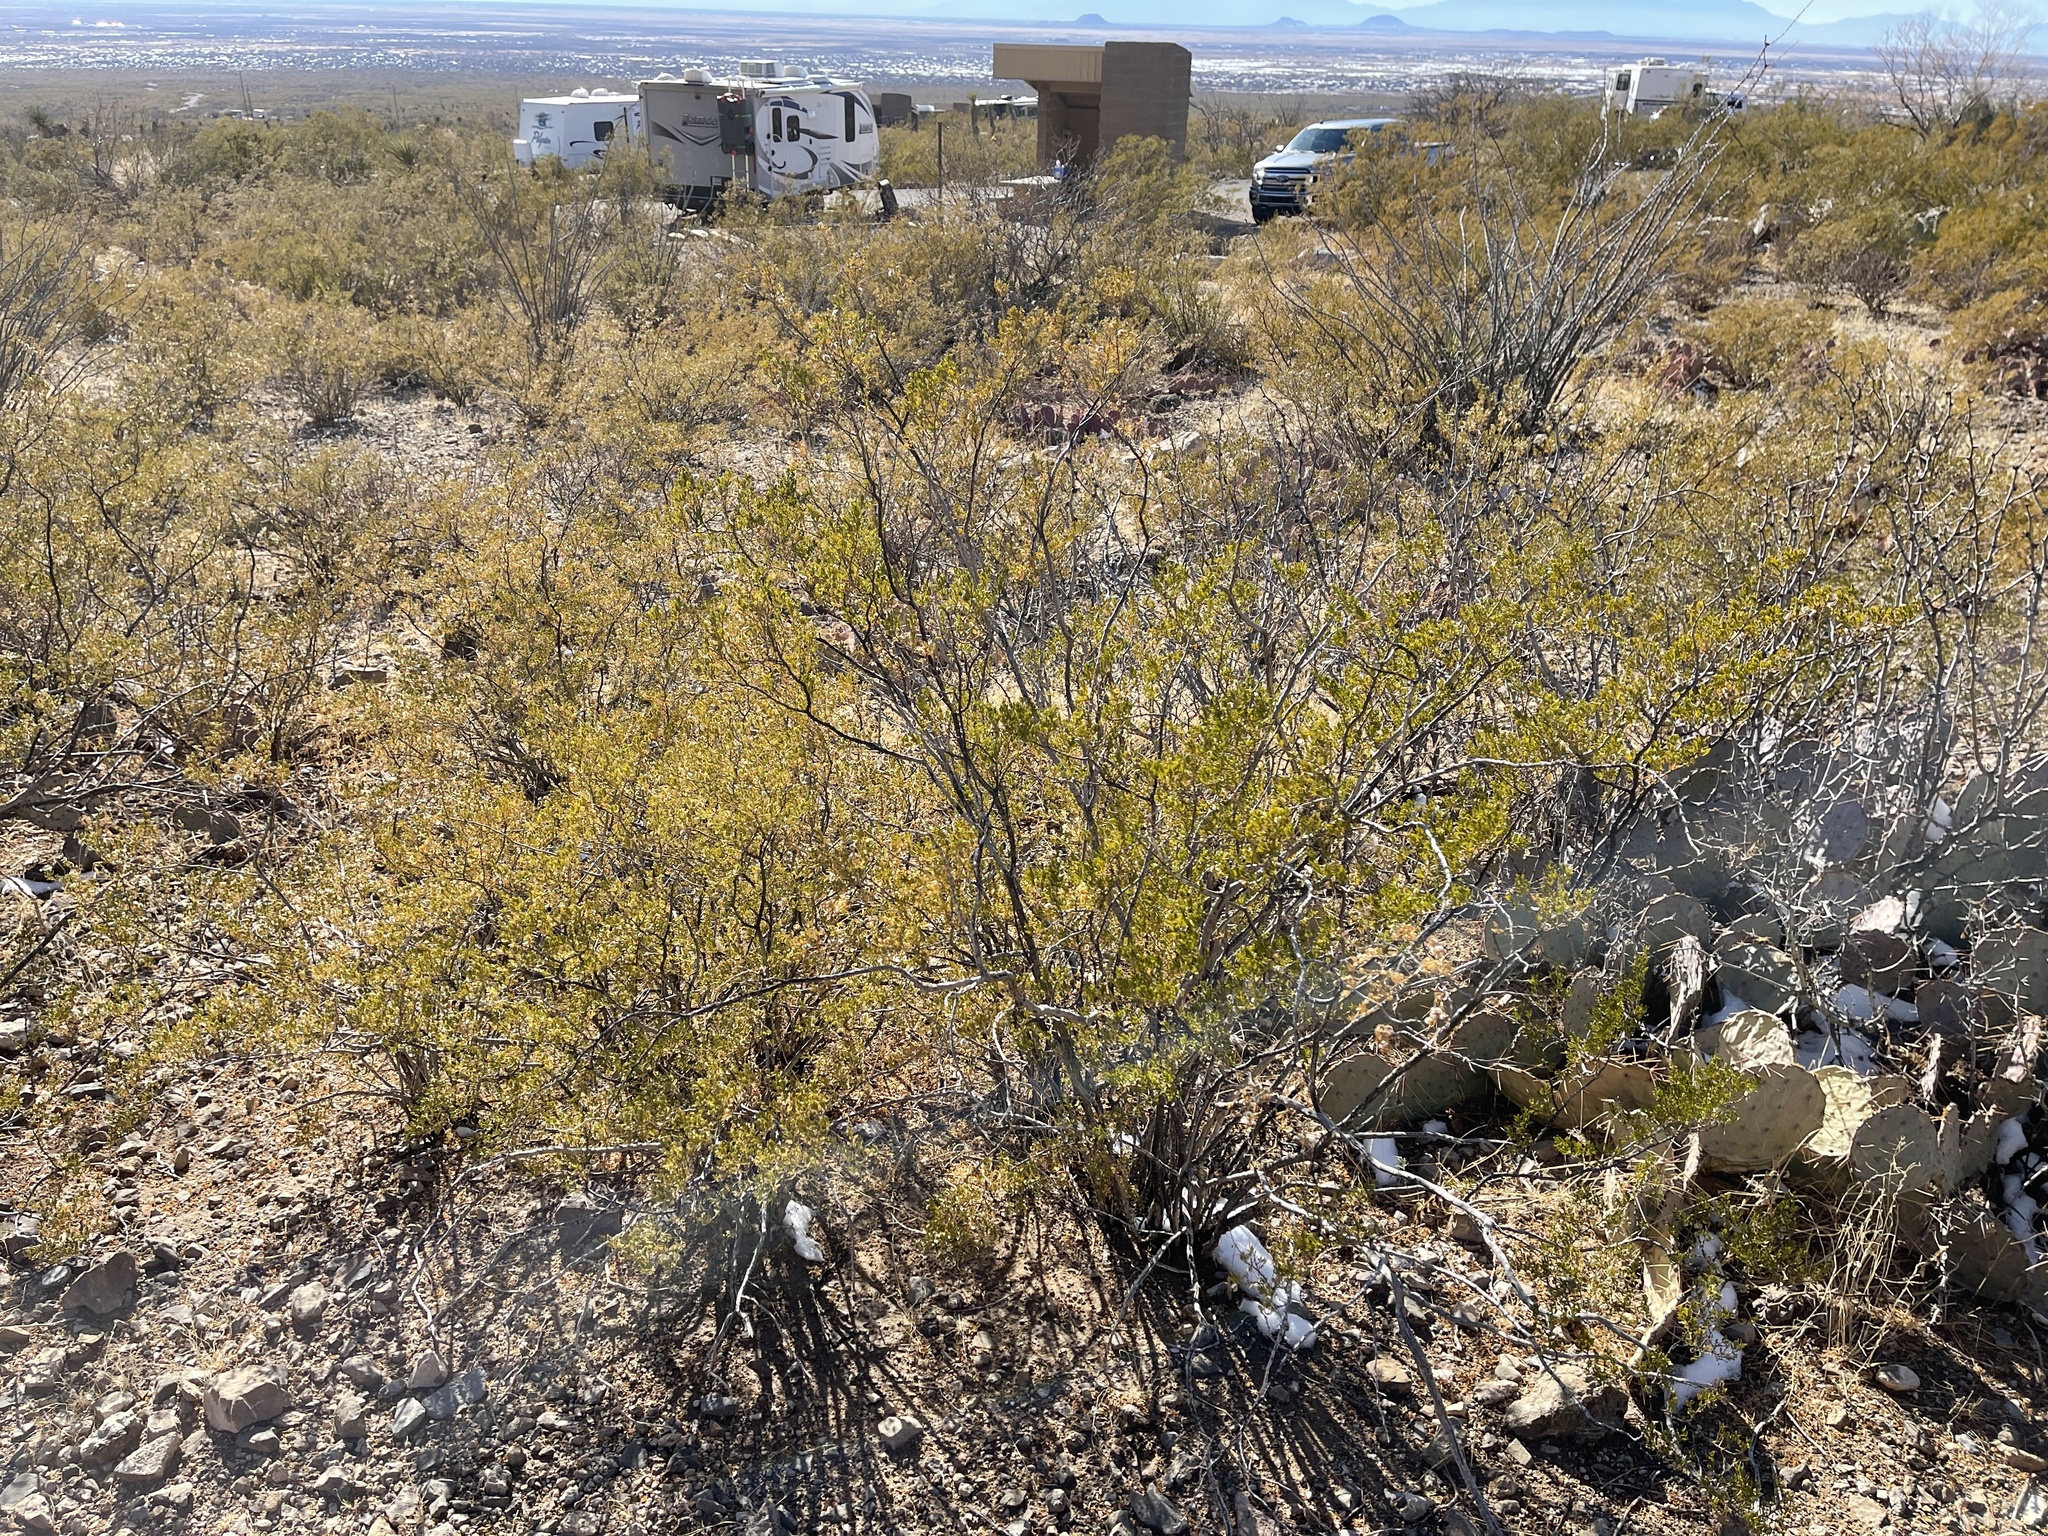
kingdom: Plantae
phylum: Tracheophyta
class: Magnoliopsida
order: Zygophyllales
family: Zygophyllaceae
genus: Larrea
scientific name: Larrea tridentata
